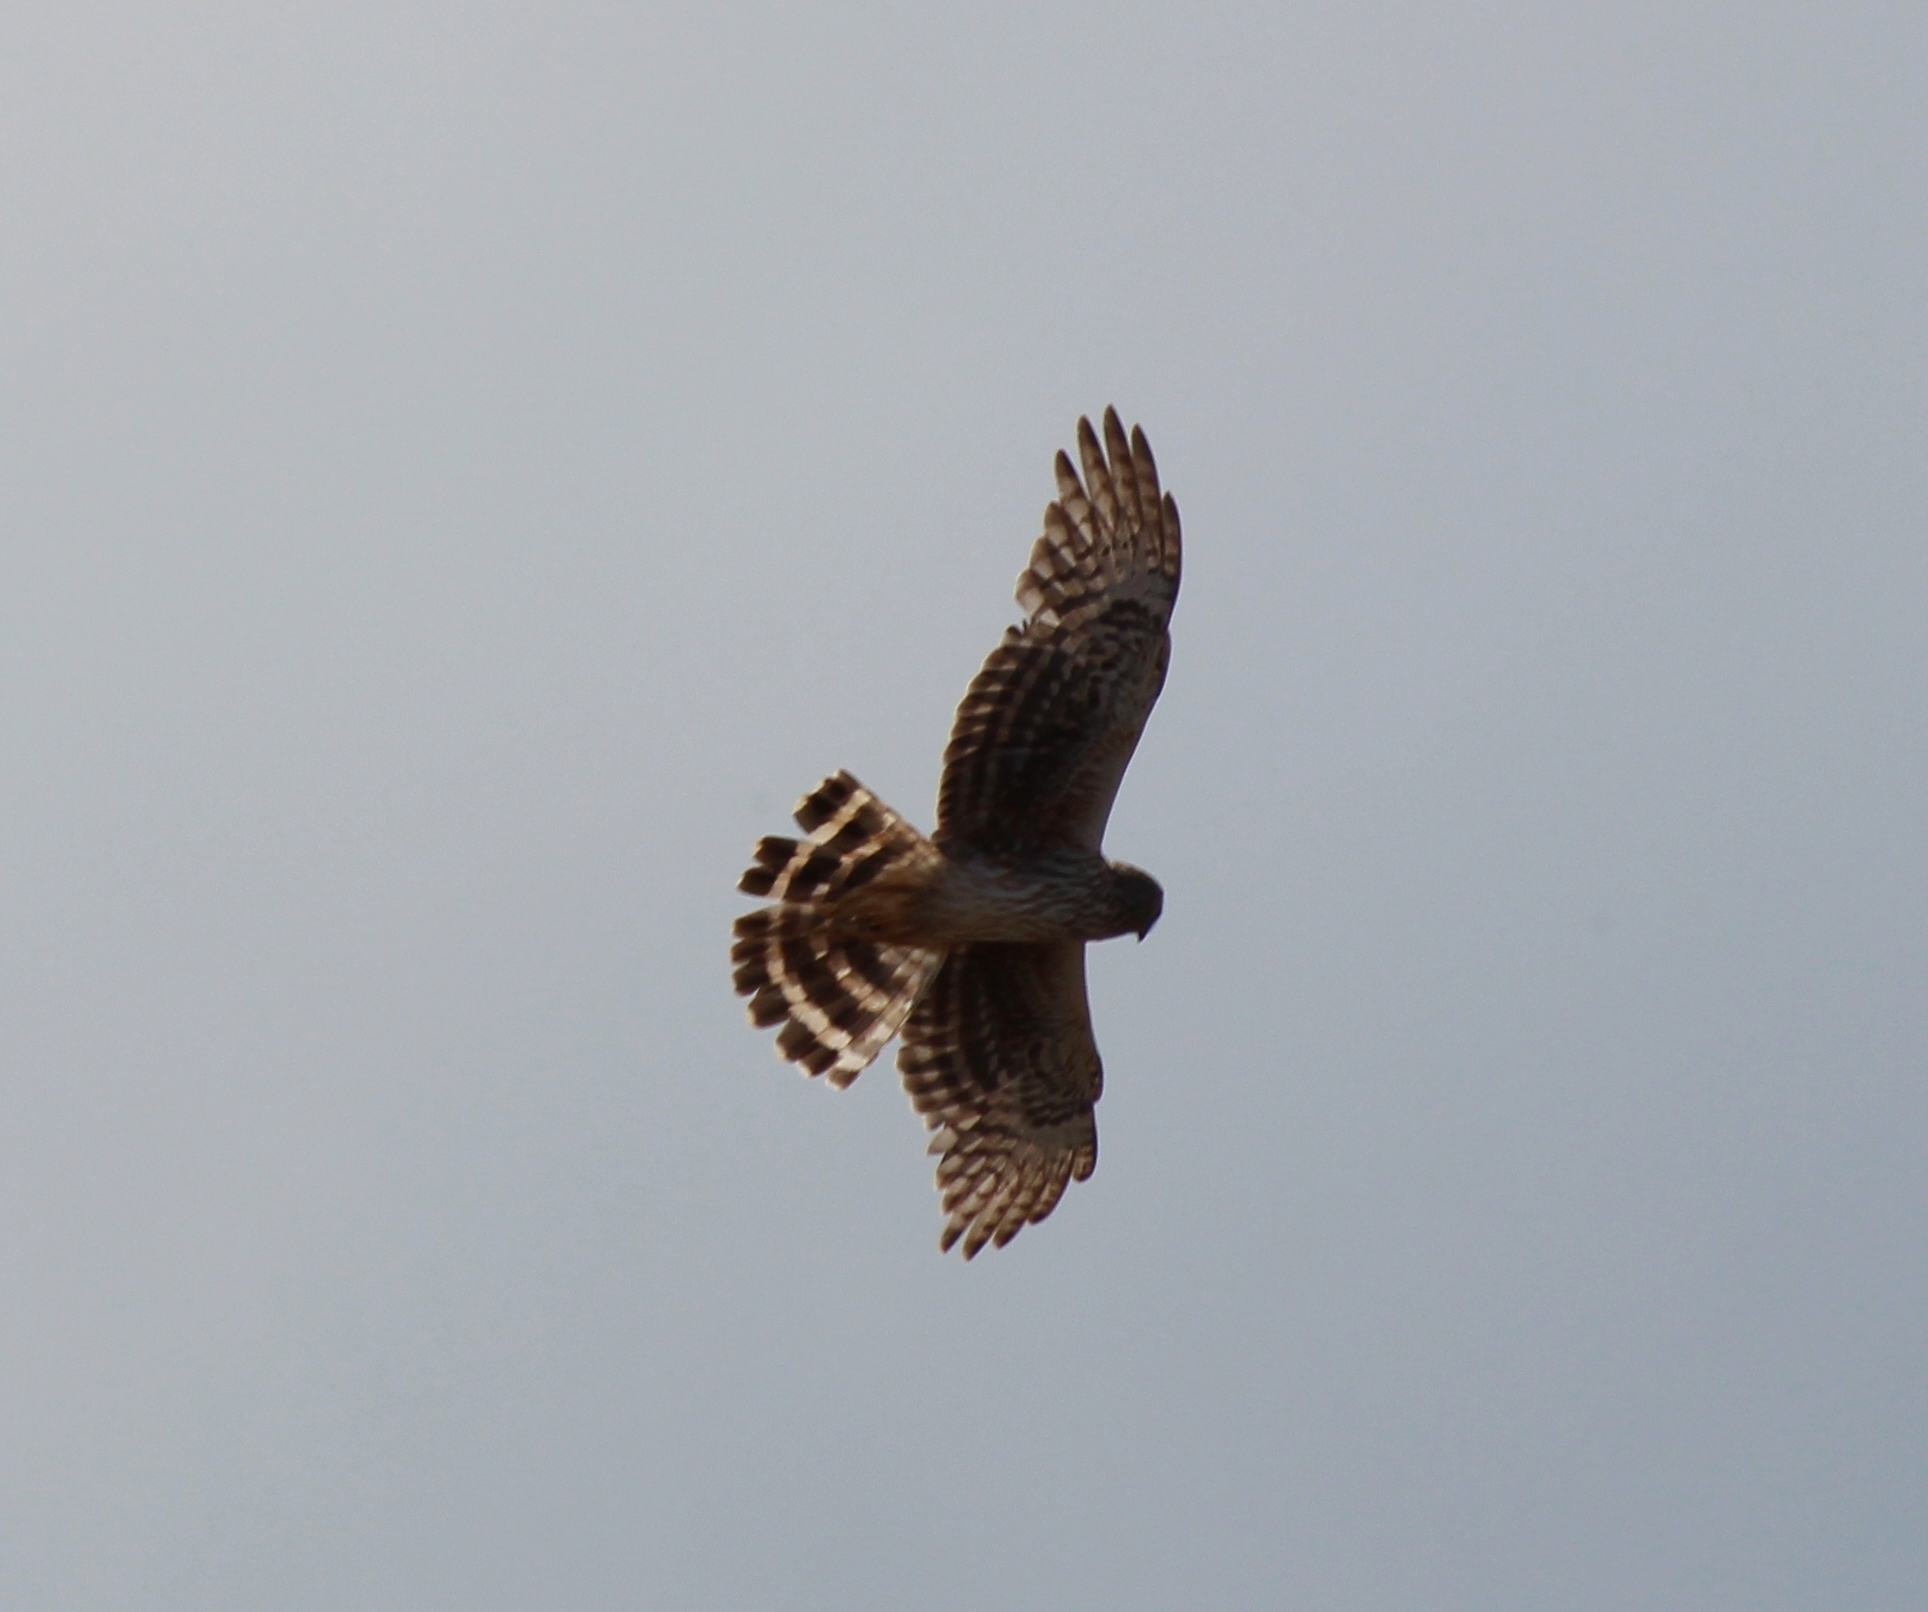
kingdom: Animalia
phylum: Chordata
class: Aves
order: Accipitriformes
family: Accipitridae
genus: Circus
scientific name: Circus cyaneus
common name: Hen harrier
